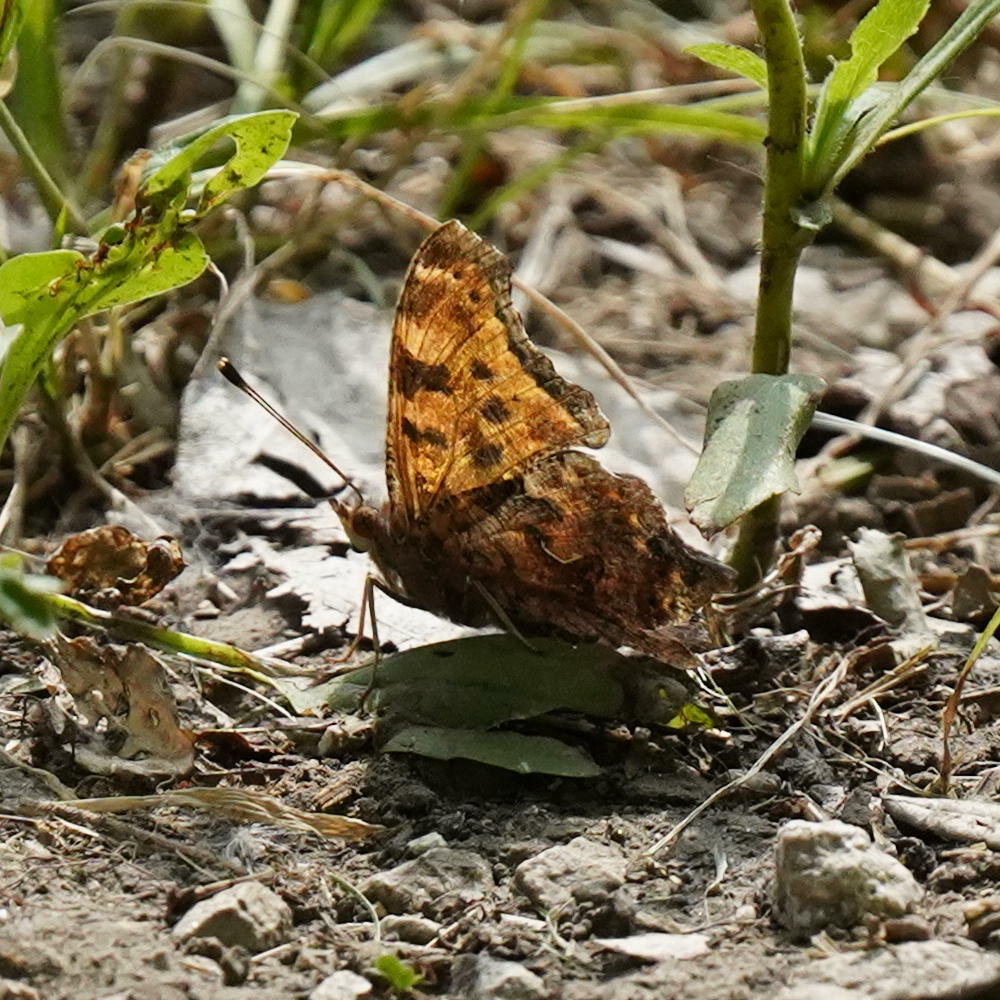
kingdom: Animalia
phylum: Arthropoda
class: Insecta
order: Lepidoptera
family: Nymphalidae
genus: Polygonia
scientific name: Polygonia comma
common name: Eastern comma
